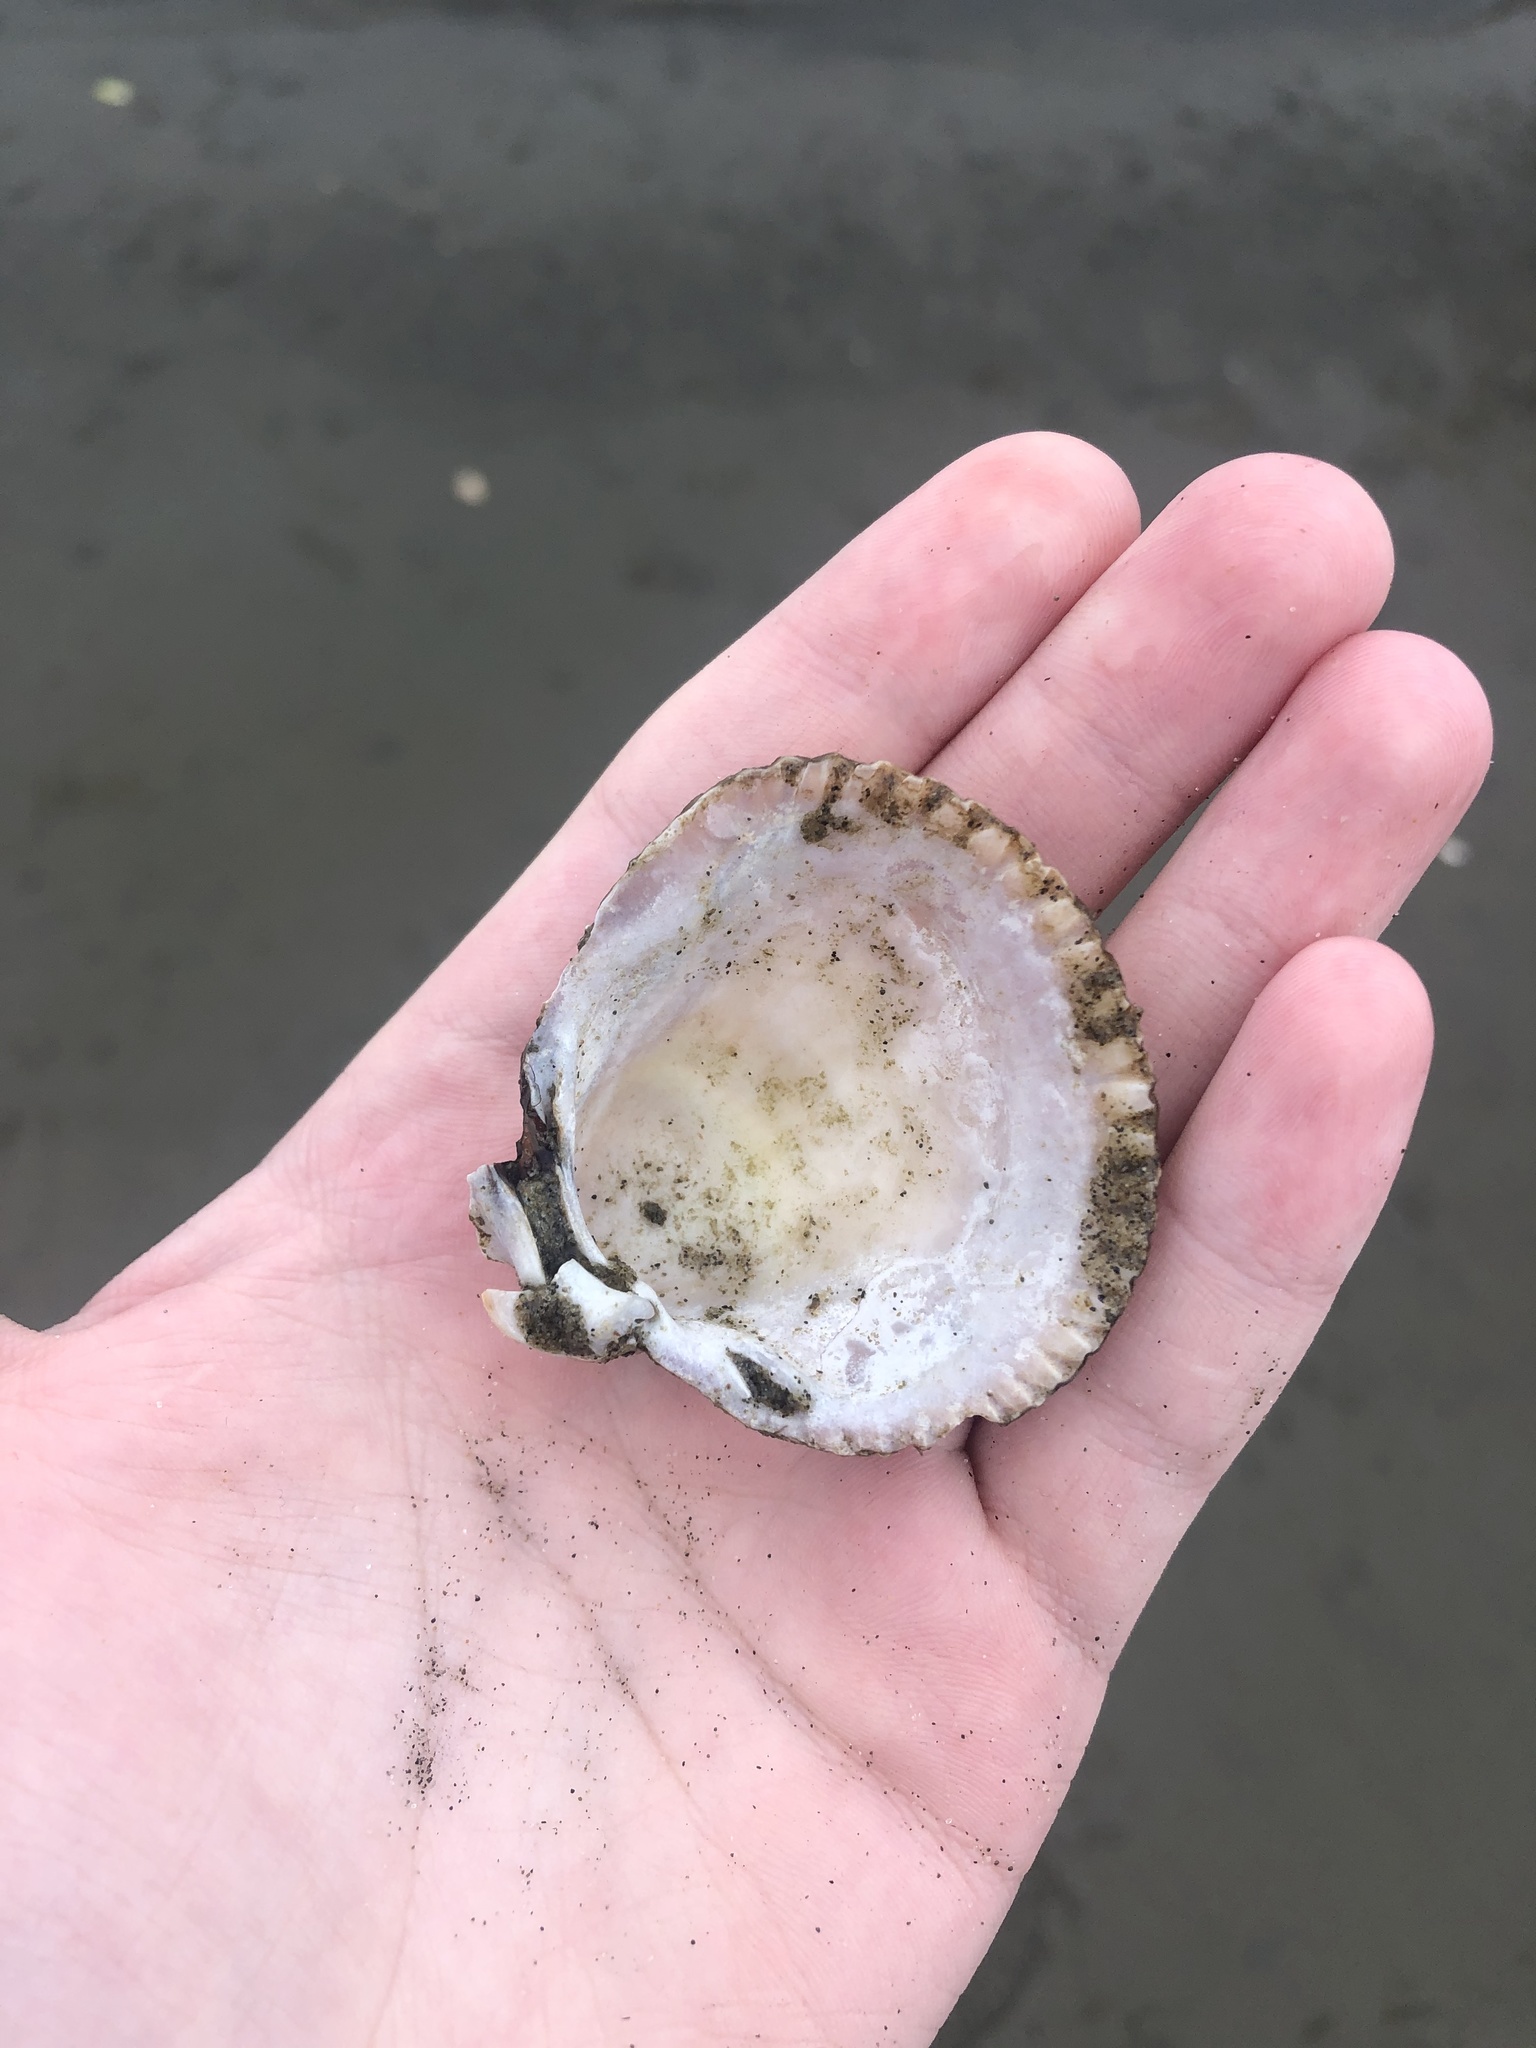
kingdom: Animalia
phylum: Mollusca
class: Bivalvia
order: Cardiida
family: Cardiidae
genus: Clinocardium
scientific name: Clinocardium nuttallii
